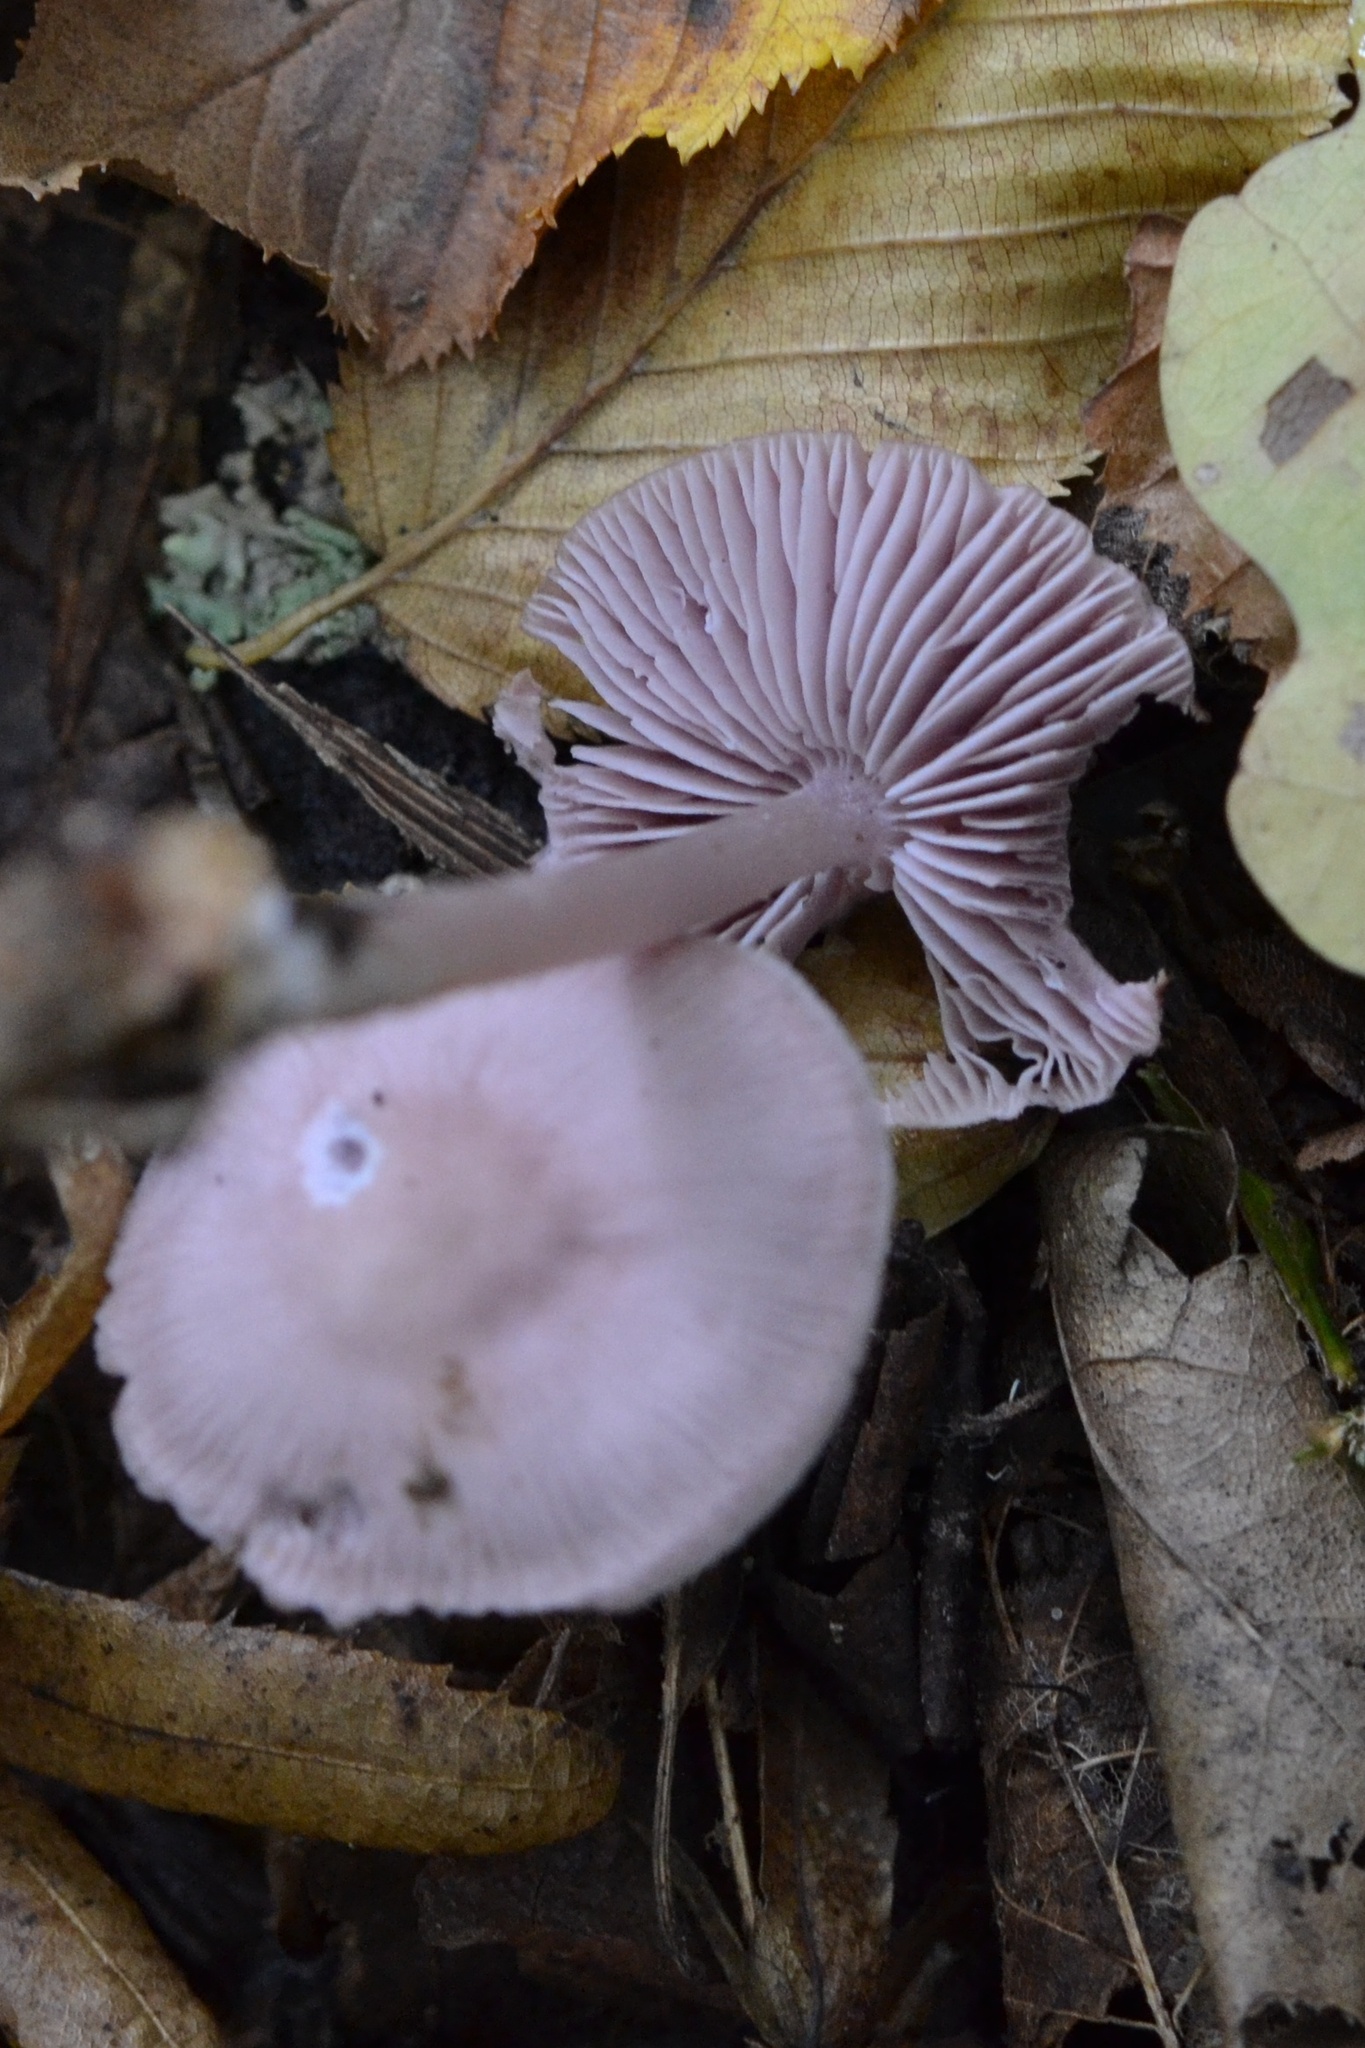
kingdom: Fungi
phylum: Basidiomycota
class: Agaricomycetes
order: Agaricales
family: Mycenaceae
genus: Mycena
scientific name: Mycena pura
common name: Lilac bonnet
